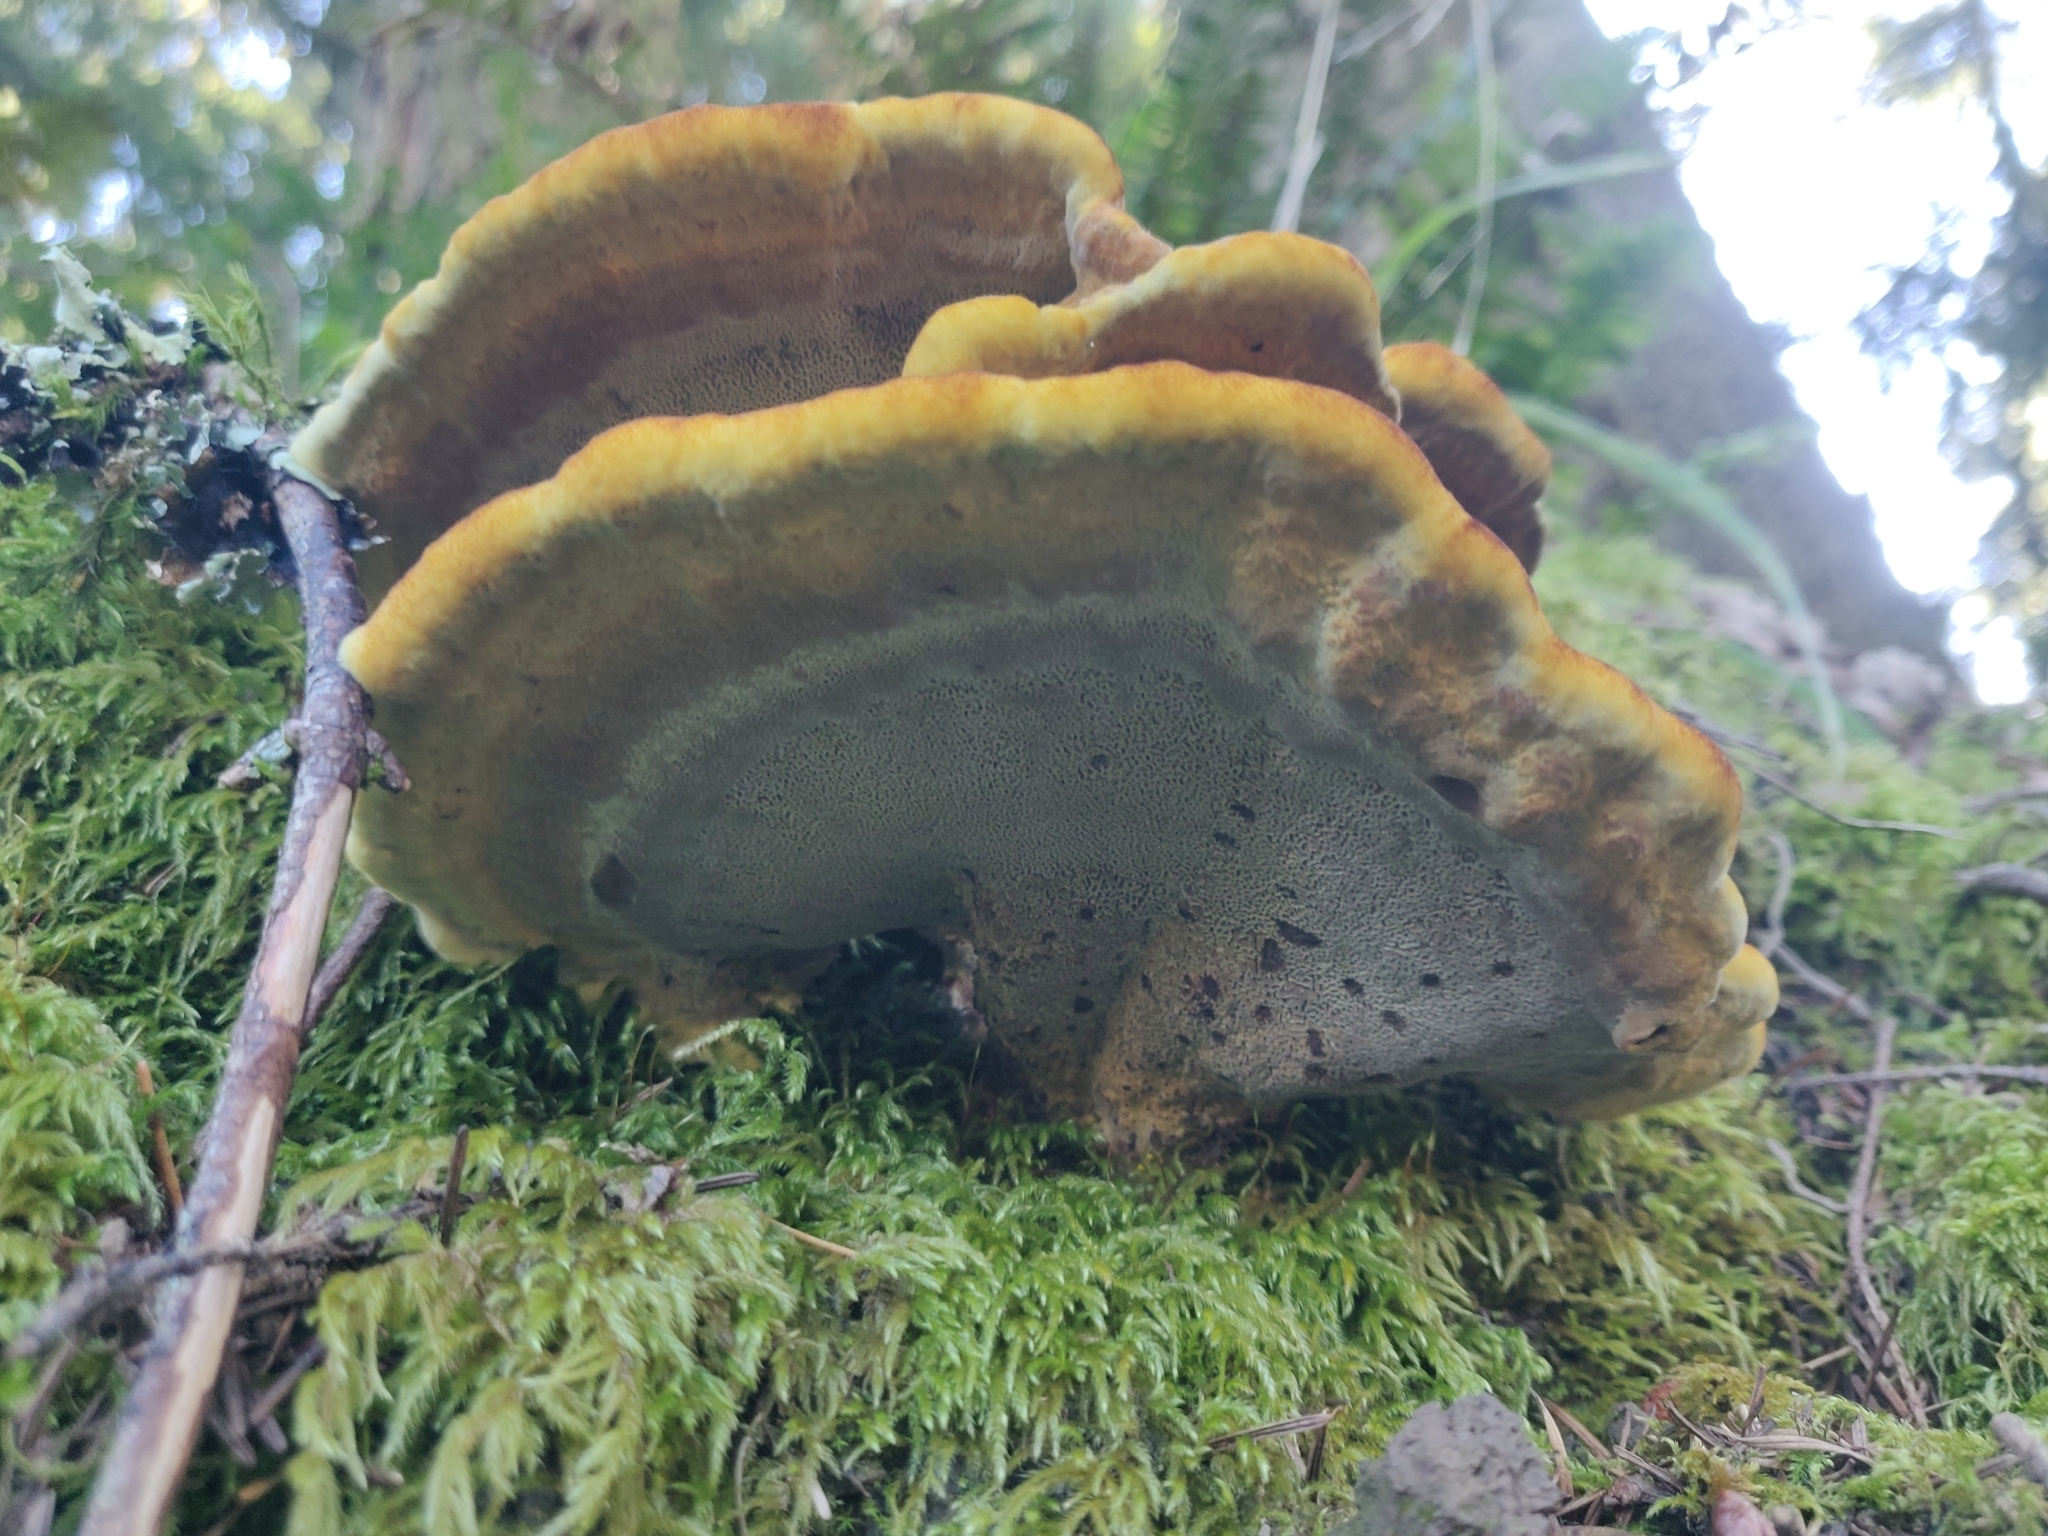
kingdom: Fungi
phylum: Basidiomycota
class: Agaricomycetes
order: Polyporales
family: Laetiporaceae
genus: Phaeolus
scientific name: Phaeolus schweinitzii
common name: Dyer's mazegill
